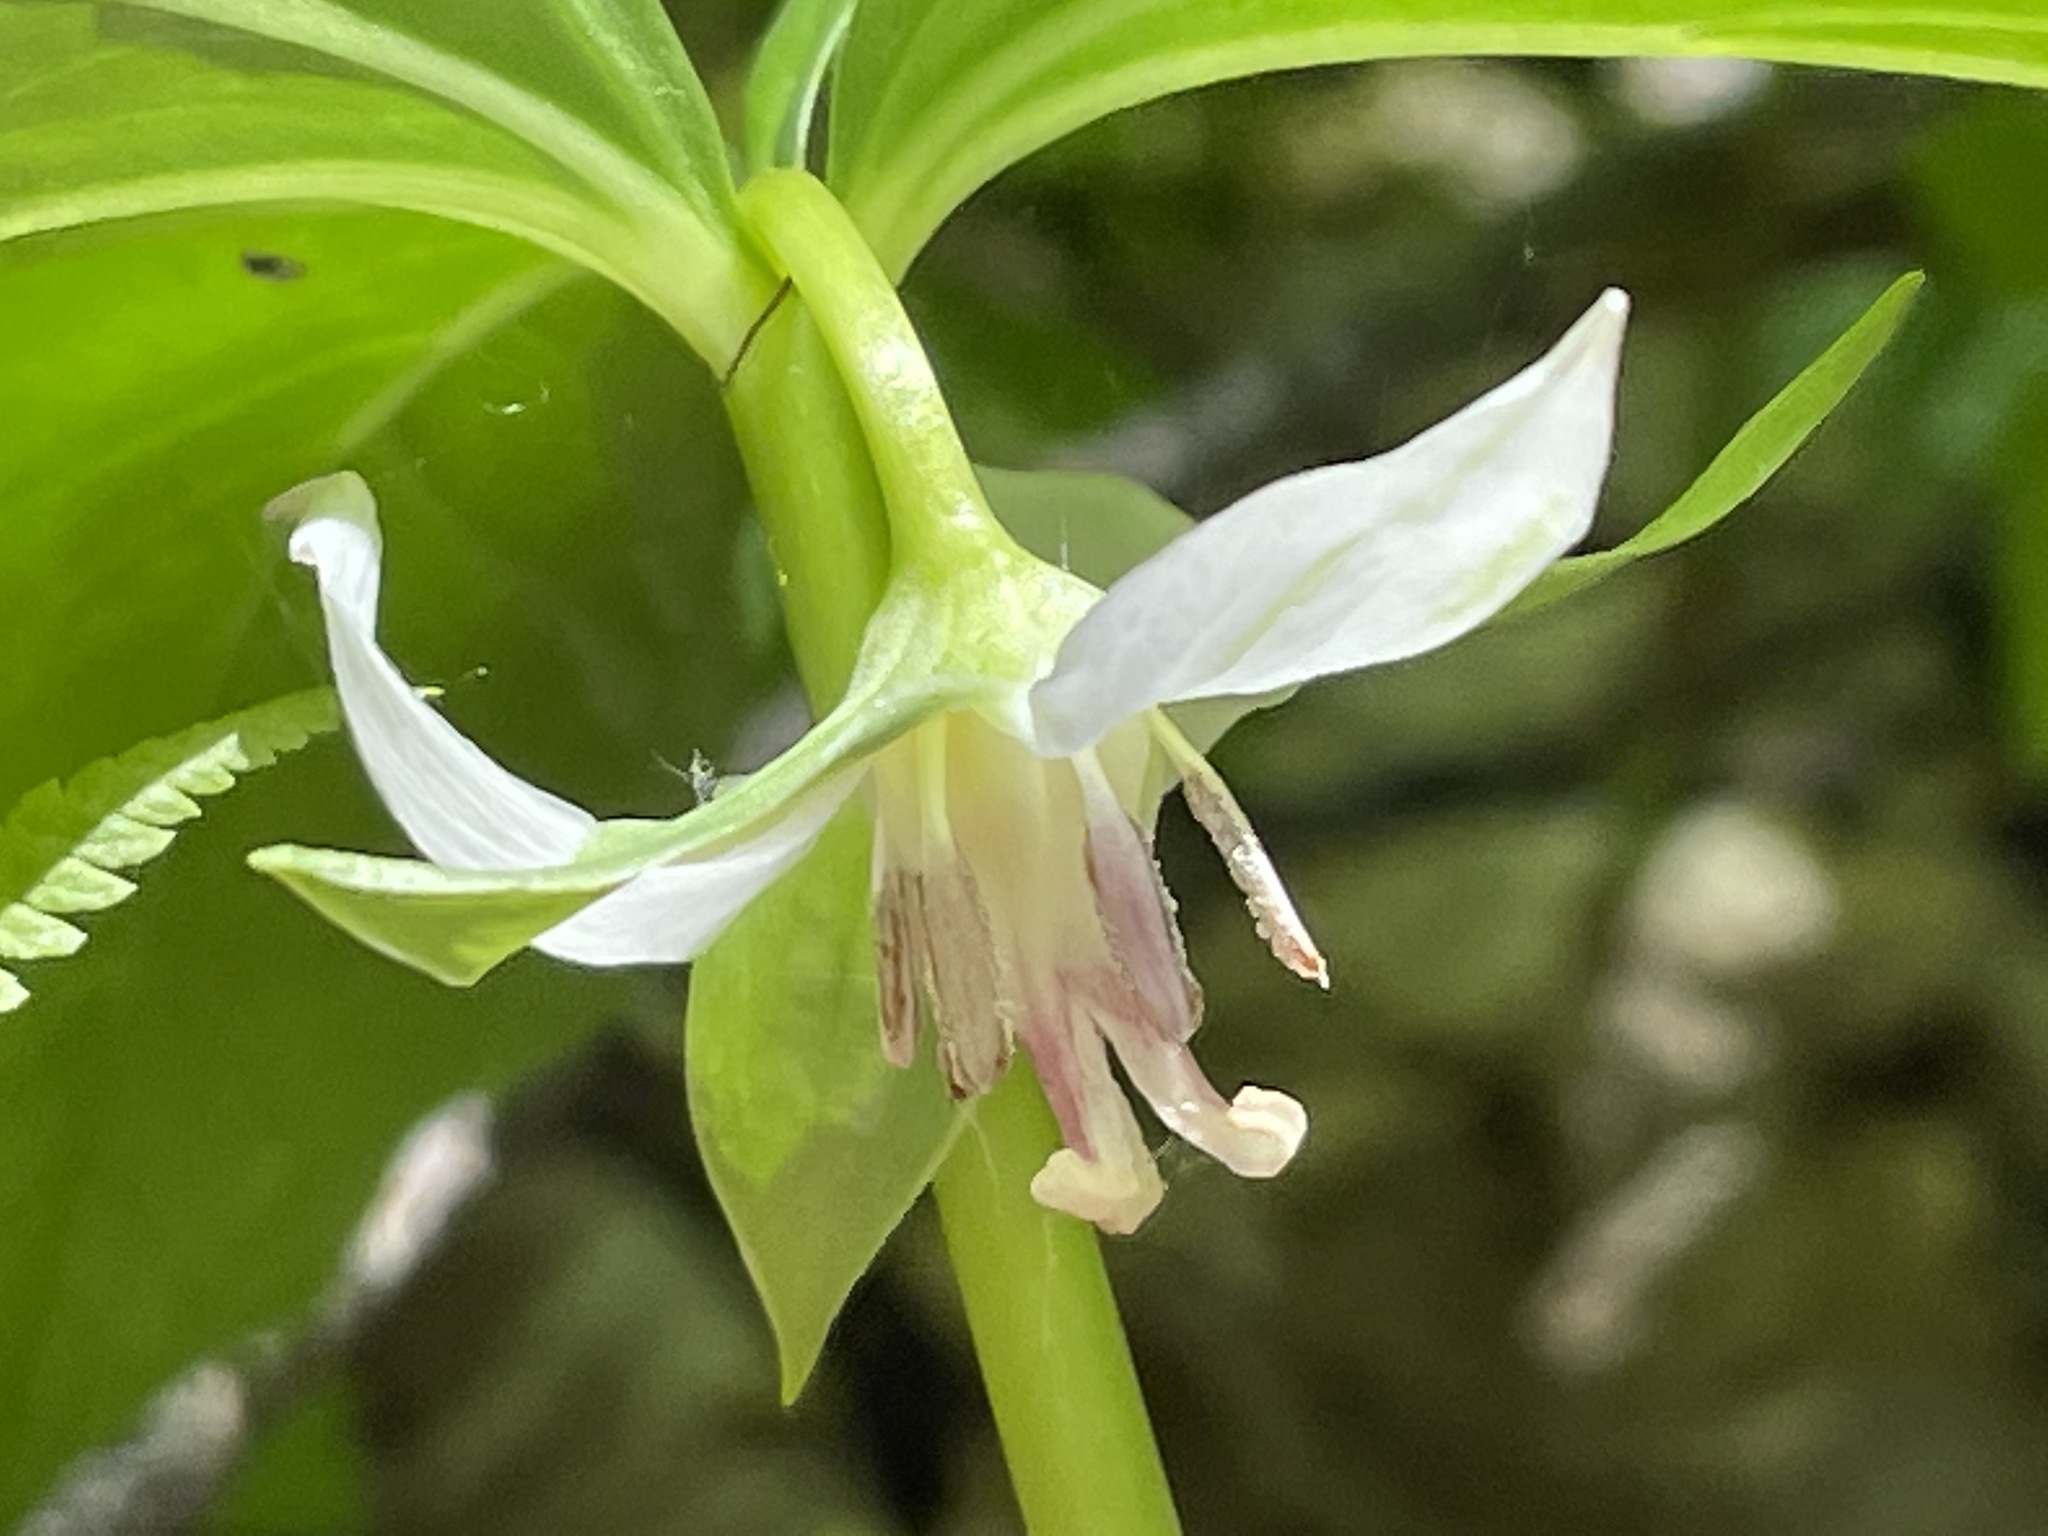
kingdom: Plantae
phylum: Tracheophyta
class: Liliopsida
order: Liliales
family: Melanthiaceae
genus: Trillium
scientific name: Trillium cernuum
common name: Nodding trillium
